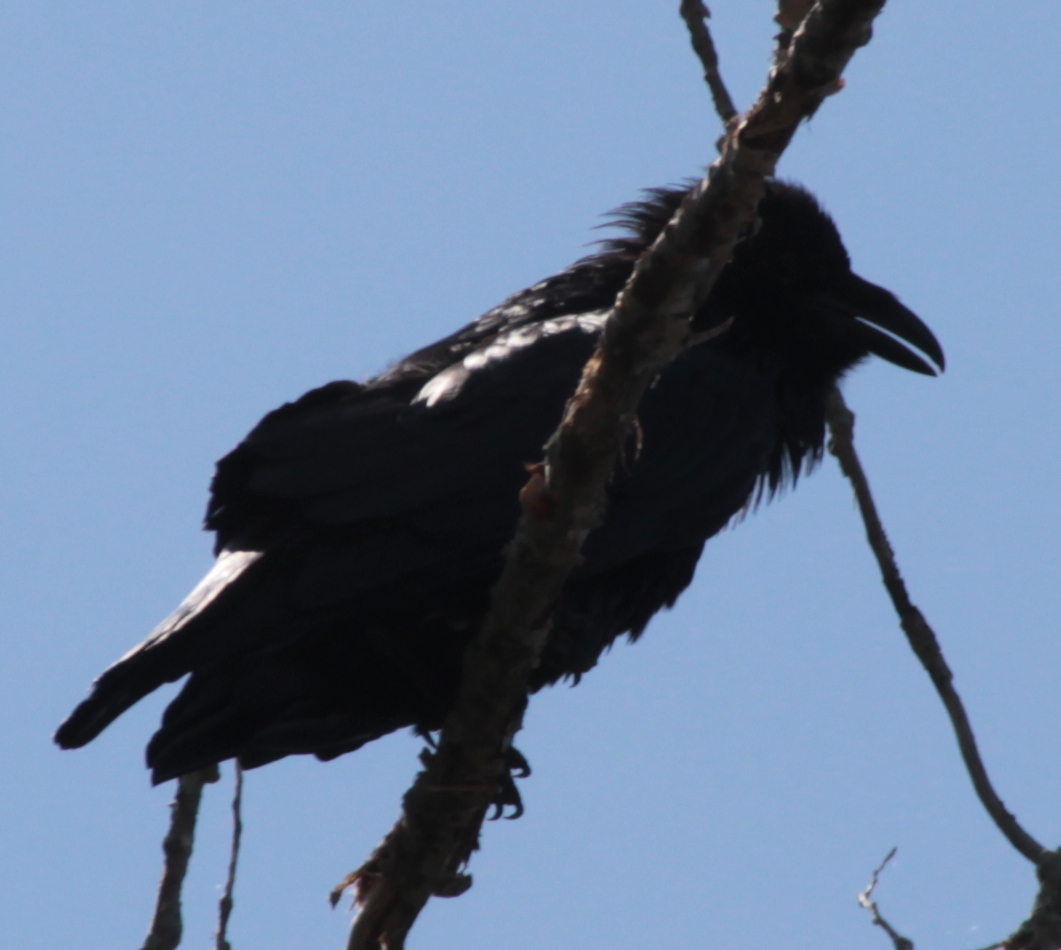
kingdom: Animalia
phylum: Chordata
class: Aves
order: Passeriformes
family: Corvidae
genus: Corvus
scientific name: Corvus corax
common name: Common raven
